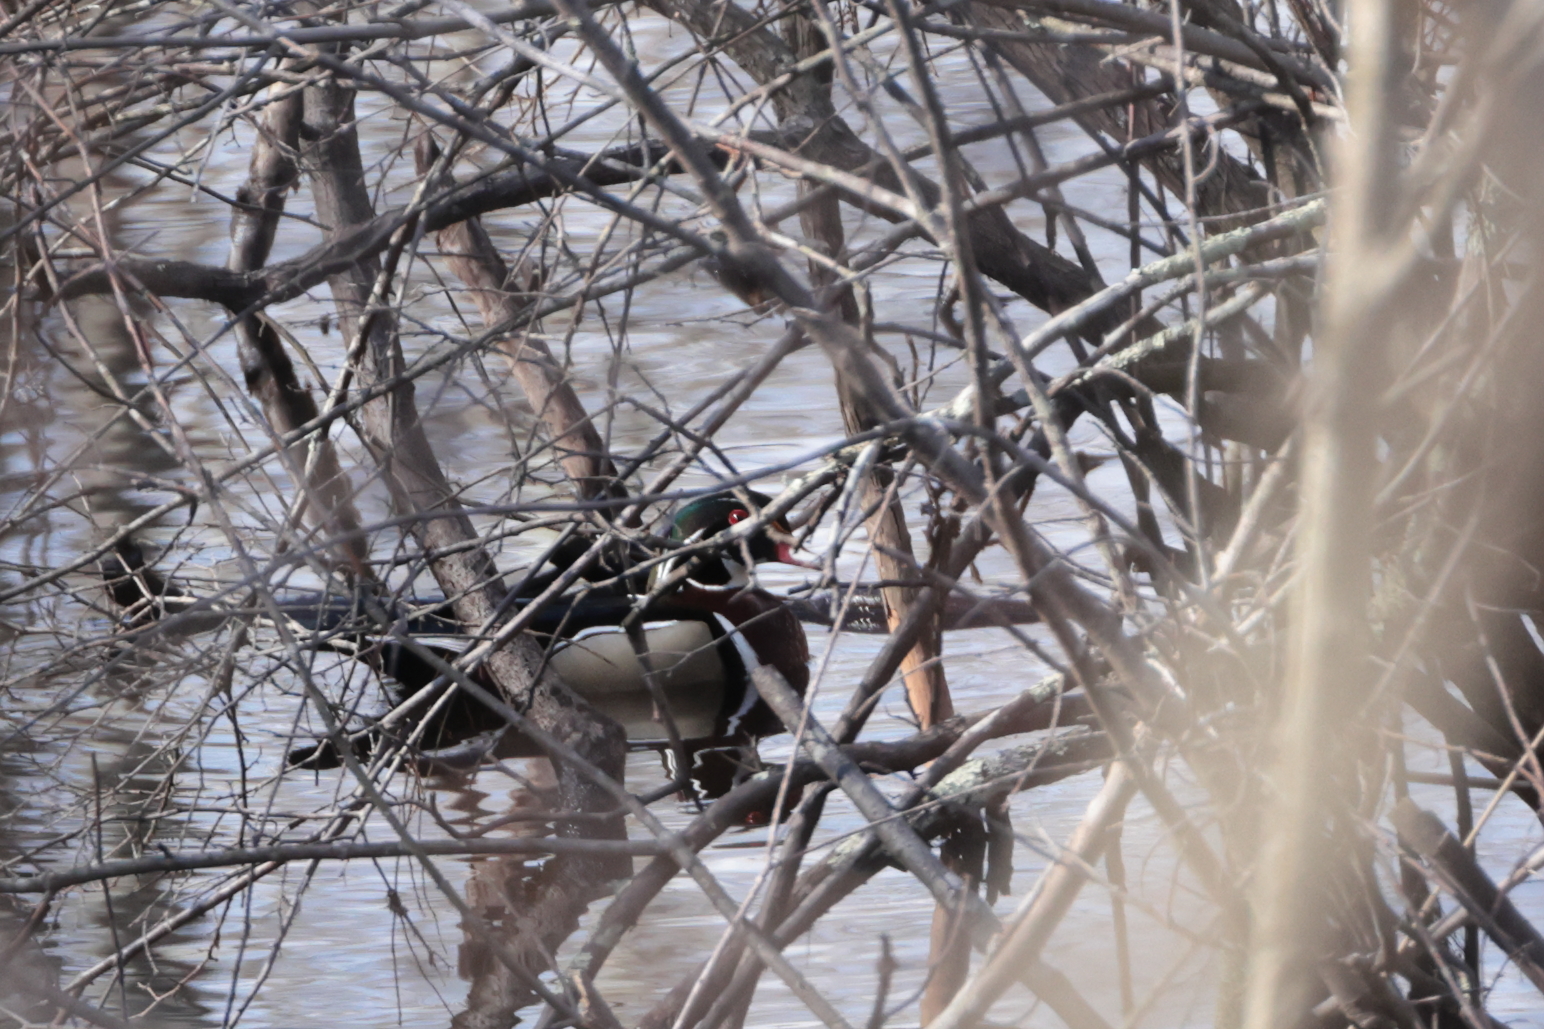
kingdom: Animalia
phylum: Chordata
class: Aves
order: Anseriformes
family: Anatidae
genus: Aix
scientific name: Aix sponsa
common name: Wood duck
